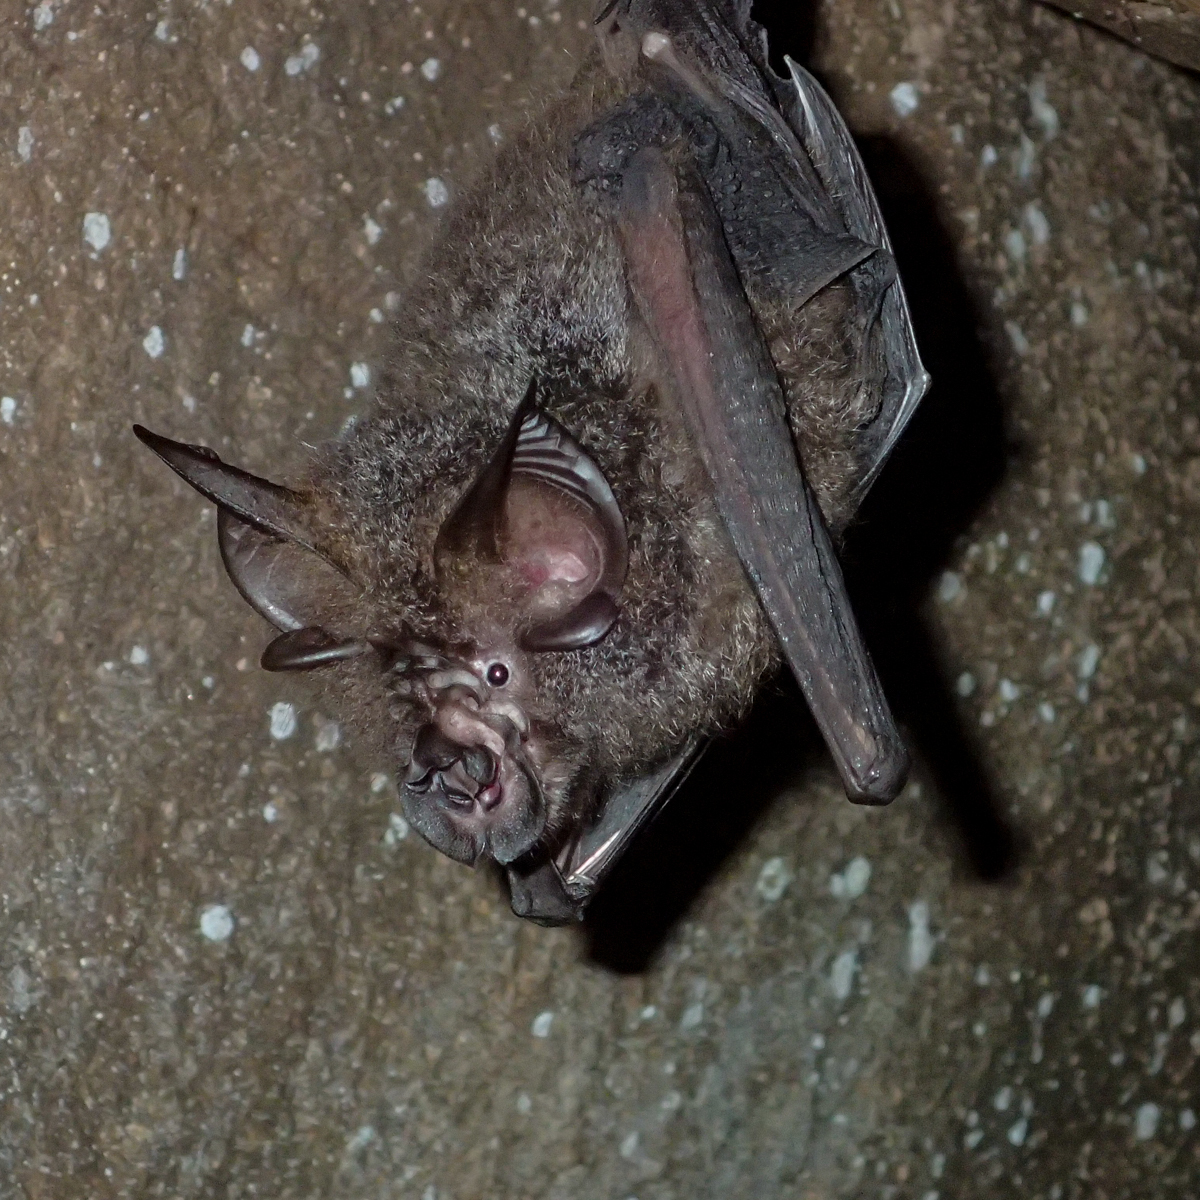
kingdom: Animalia
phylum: Chordata
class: Mammalia
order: Chiroptera
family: Rhinolophidae
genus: Rhinolophus
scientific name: Rhinolophus luctus
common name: Woolly horseshoe bat
